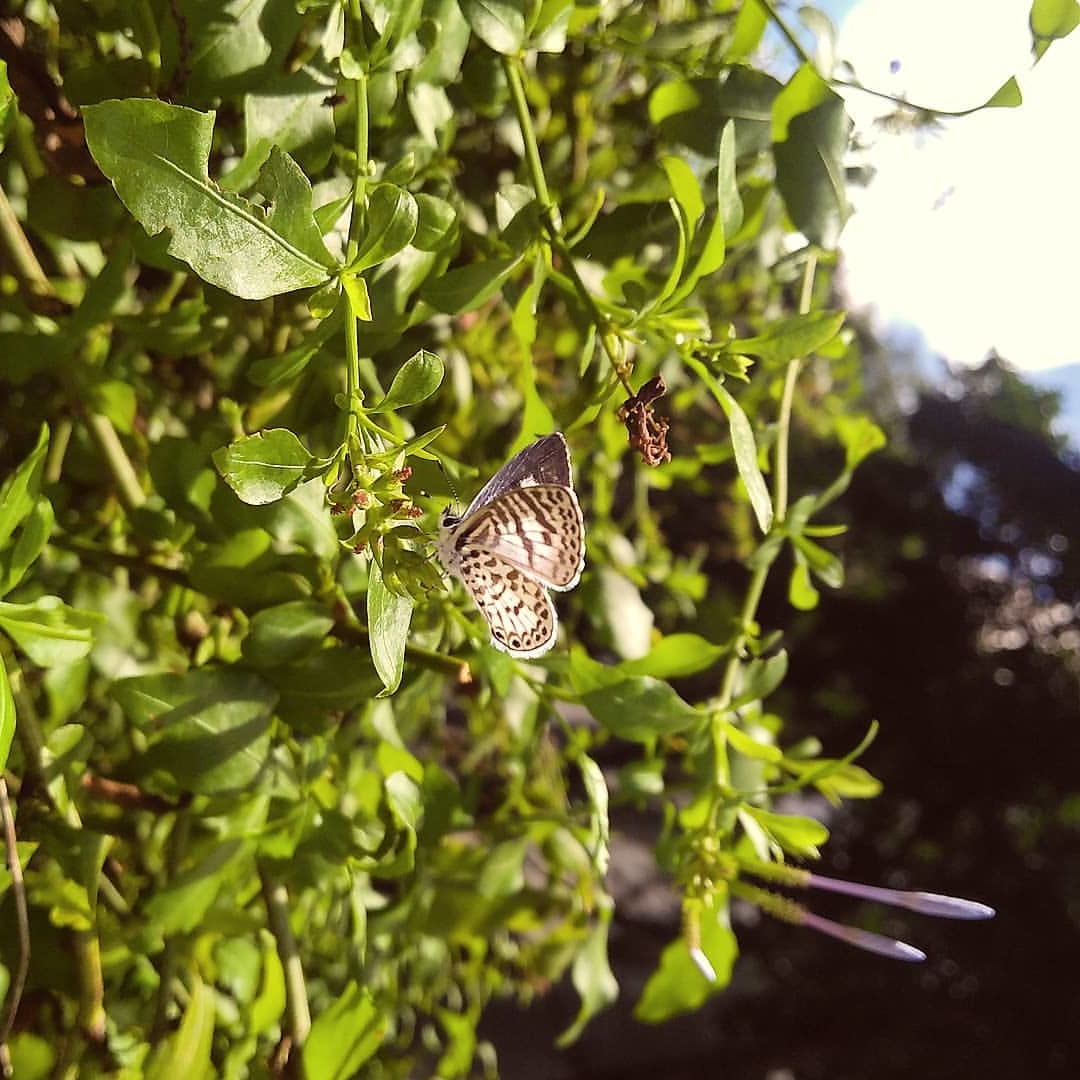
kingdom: Animalia
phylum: Arthropoda
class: Insecta
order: Lepidoptera
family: Lycaenidae
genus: Leptotes
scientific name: Leptotes cassius
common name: Cassius blue
